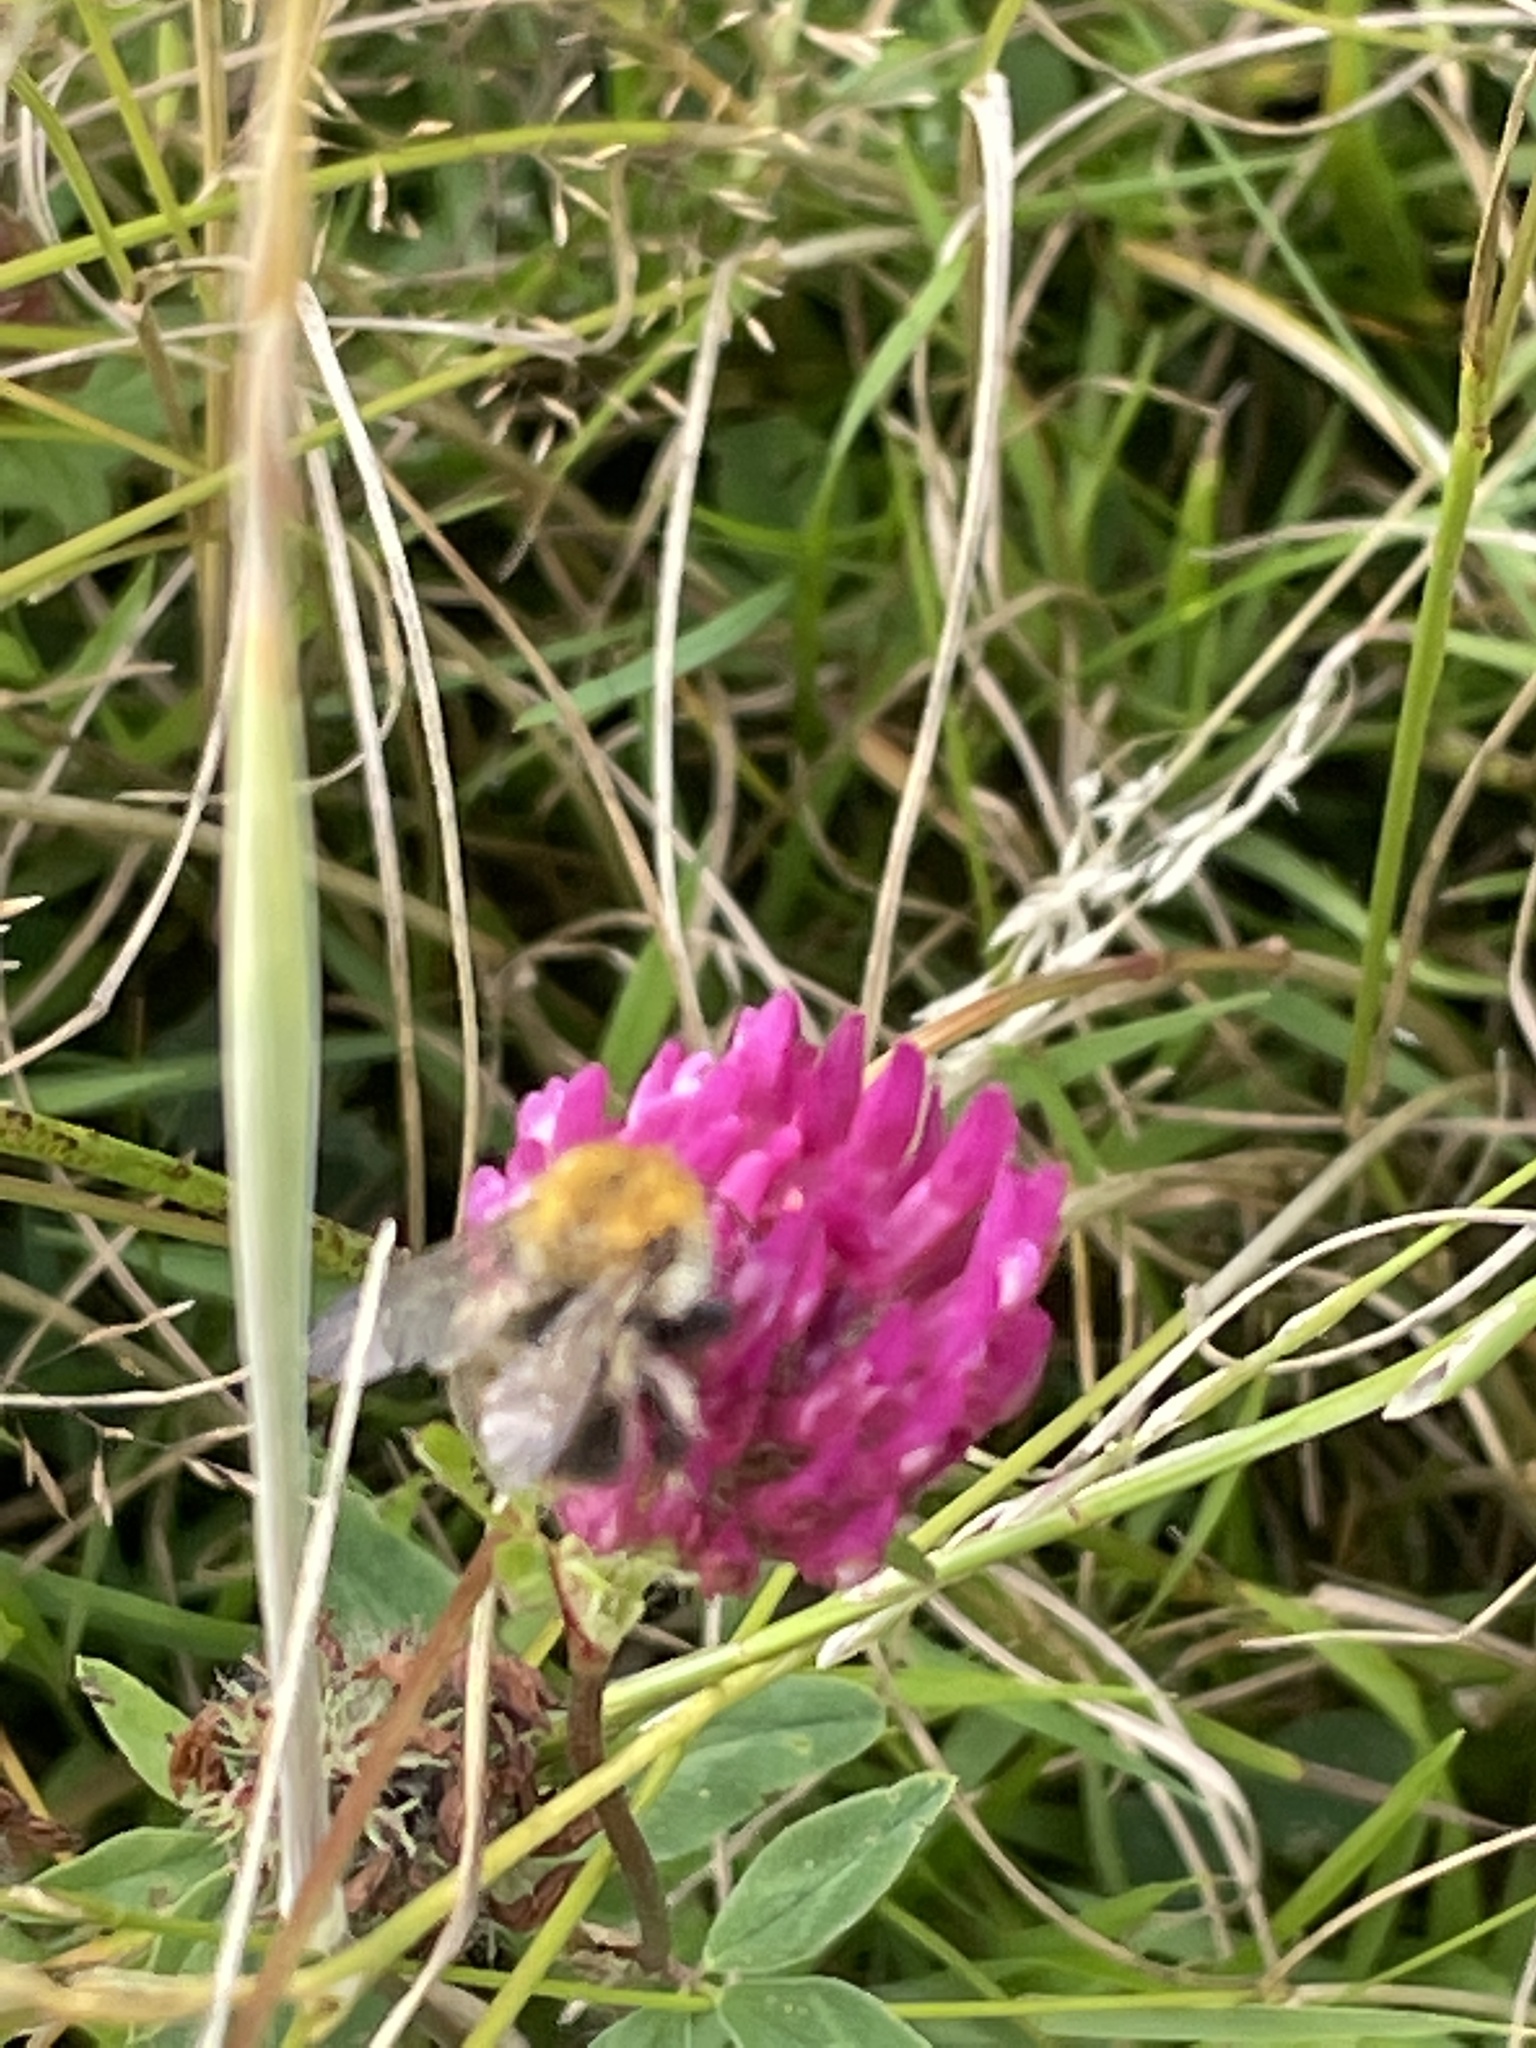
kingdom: Animalia
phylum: Arthropoda
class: Insecta
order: Hymenoptera
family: Apidae
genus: Bombus
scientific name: Bombus pascuorum
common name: Common carder bee
